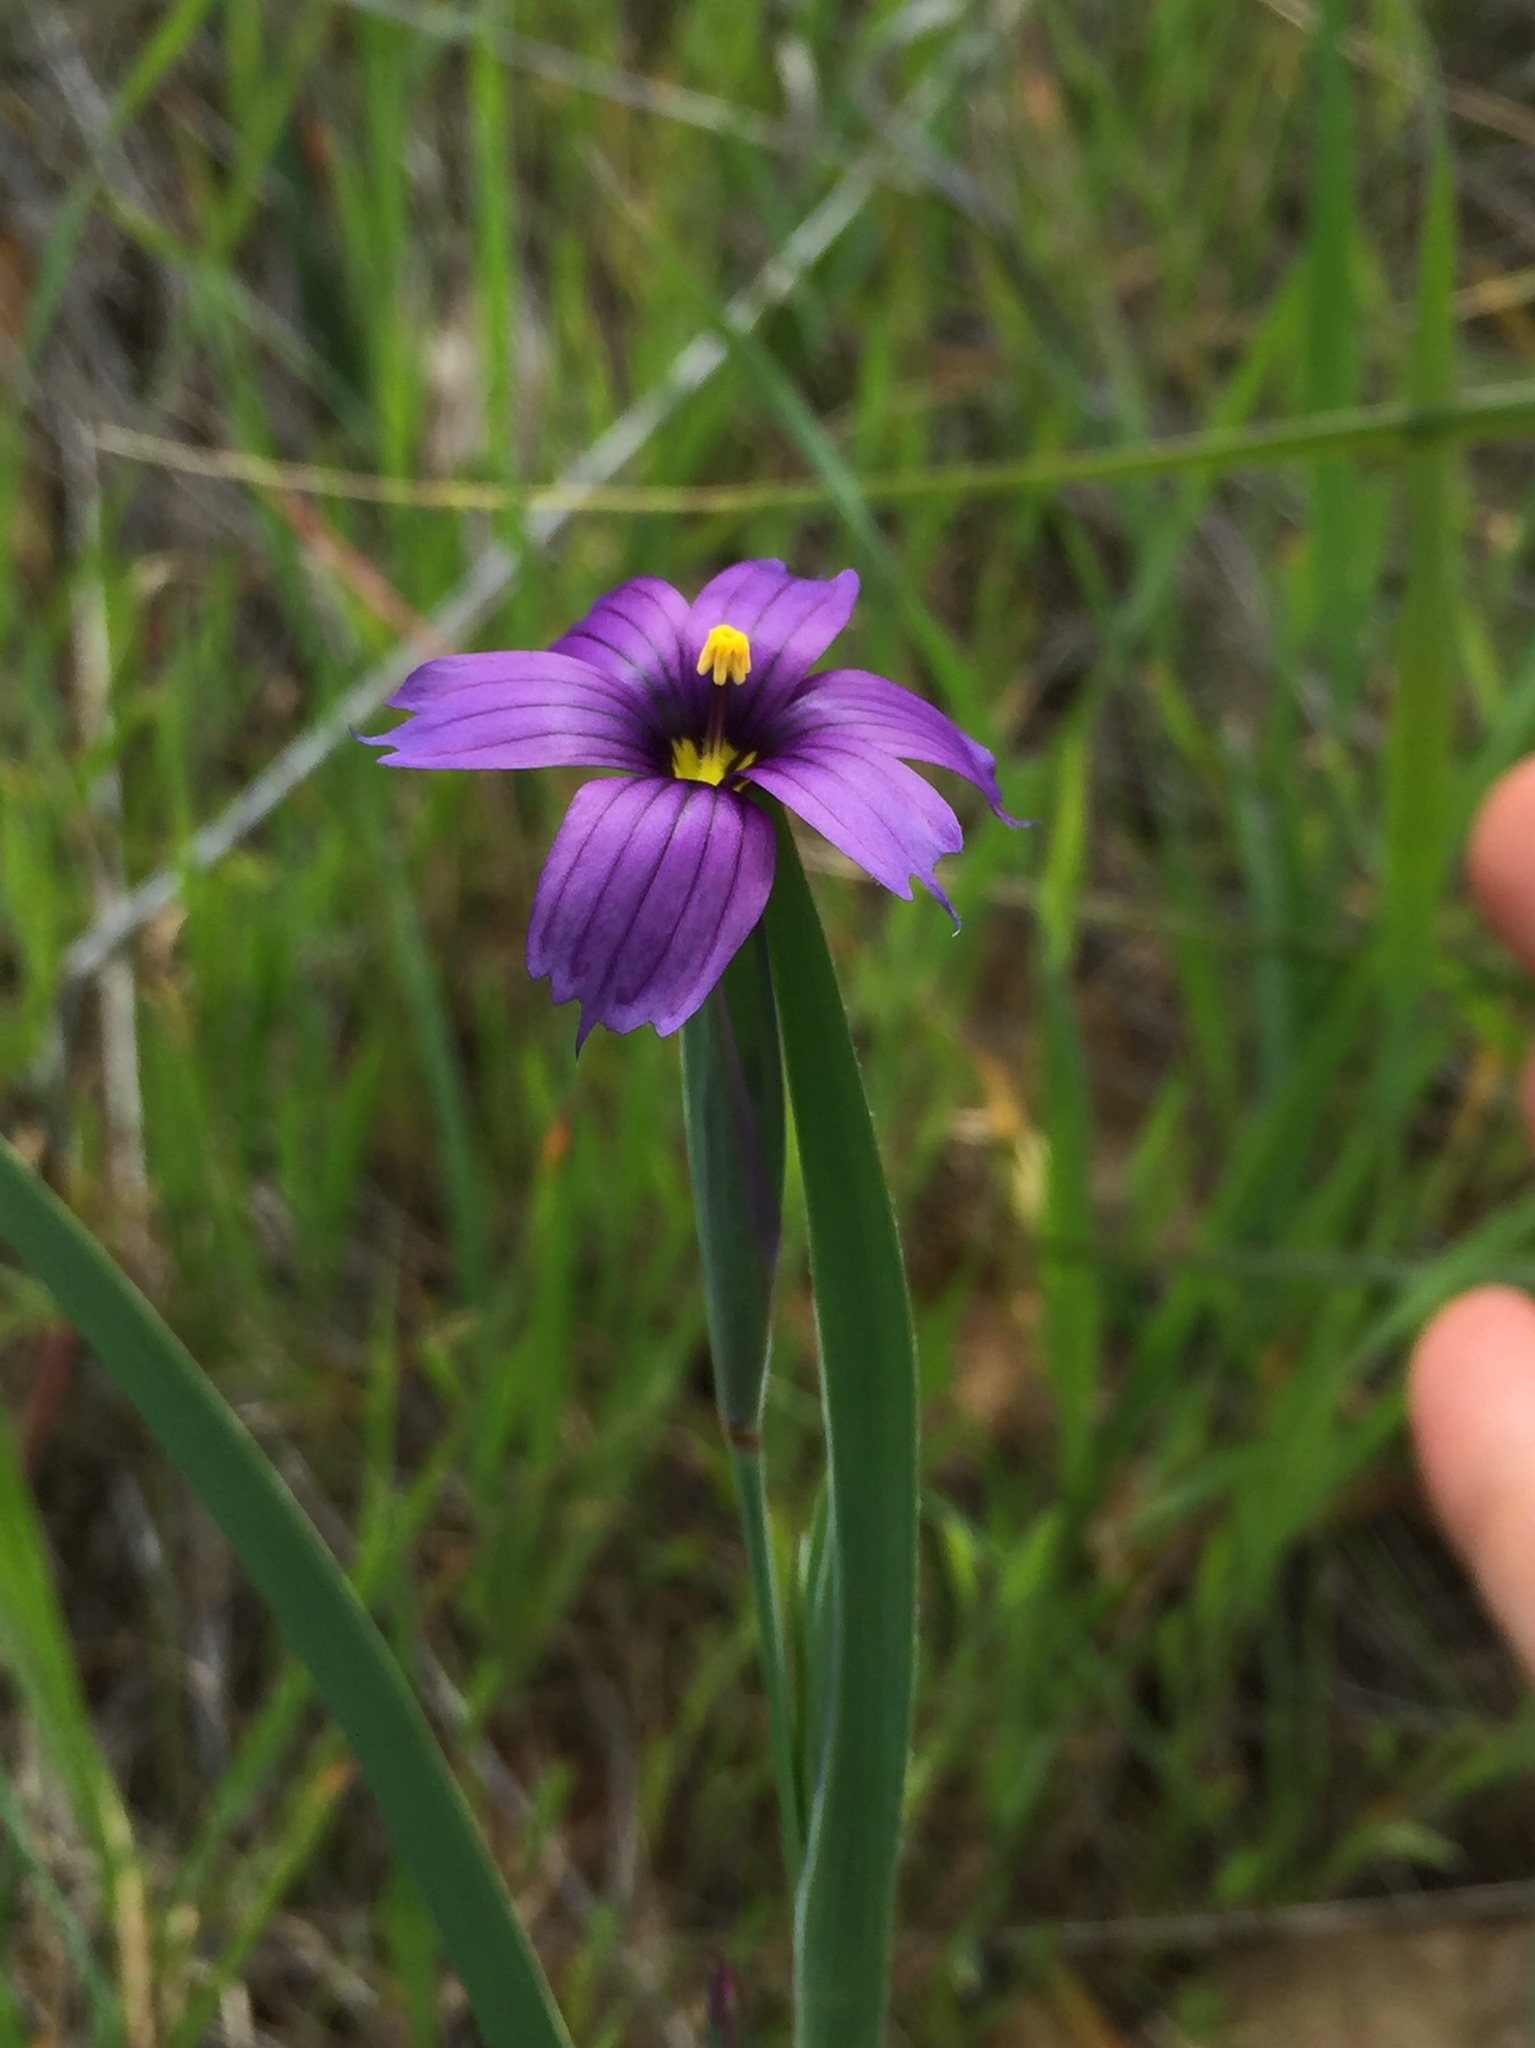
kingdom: Plantae
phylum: Tracheophyta
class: Liliopsida
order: Asparagales
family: Iridaceae
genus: Sisyrinchium
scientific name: Sisyrinchium bellum
